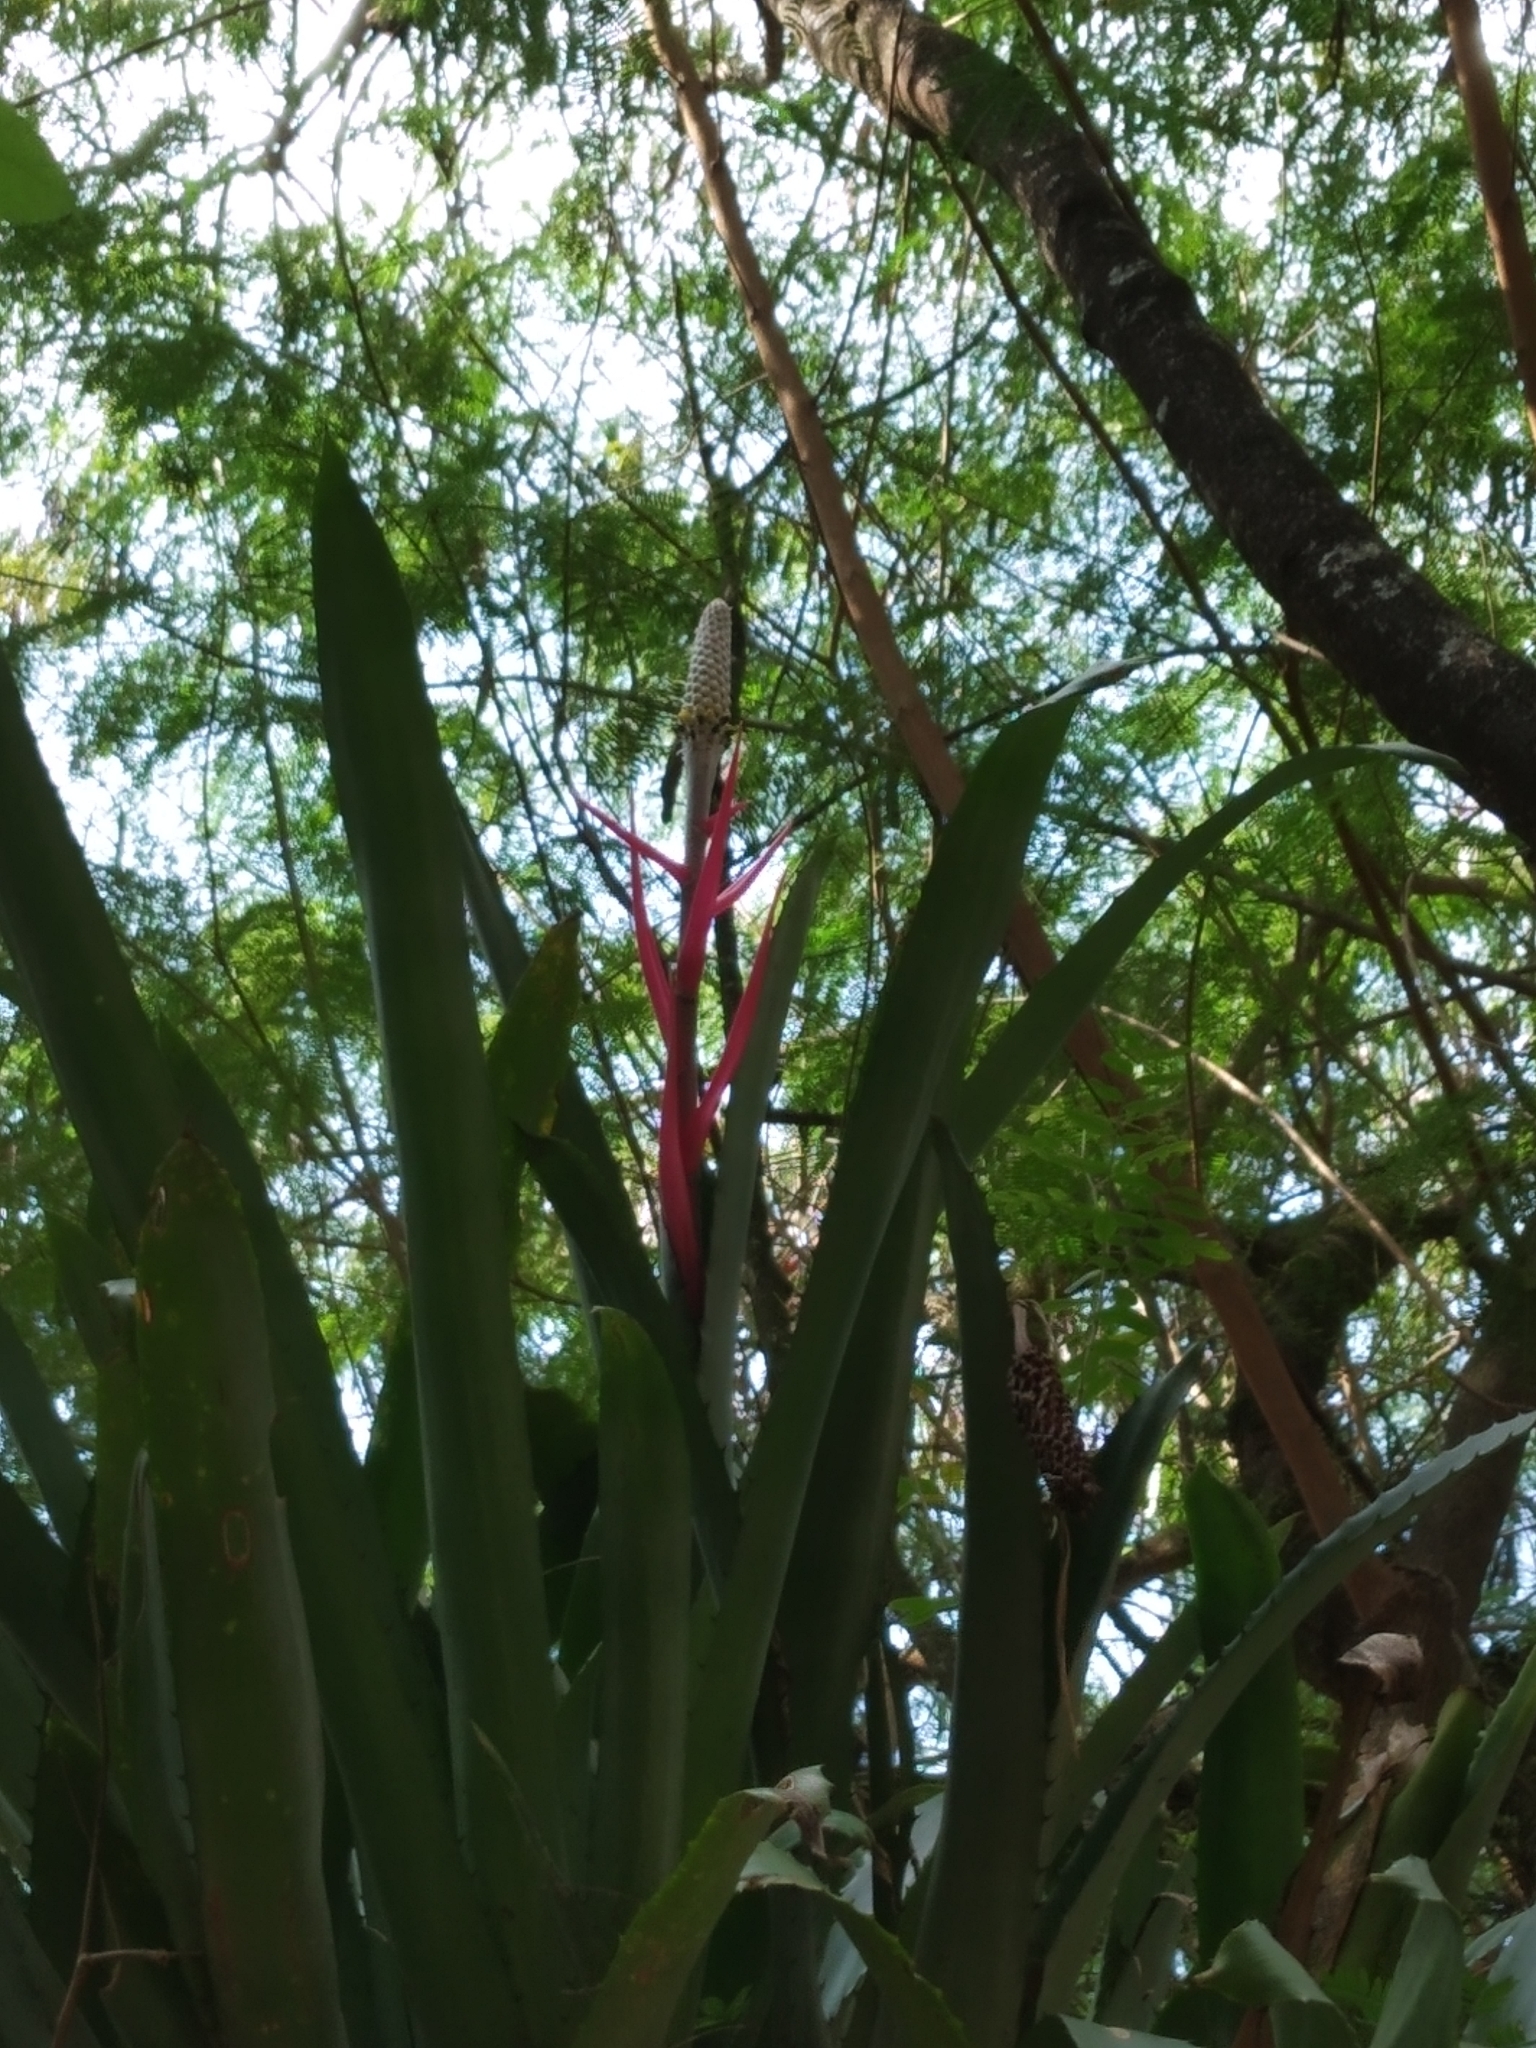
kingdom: Plantae
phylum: Tracheophyta
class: Liliopsida
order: Poales
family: Bromeliaceae
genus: Aechmea
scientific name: Aechmea bromeliifolia
